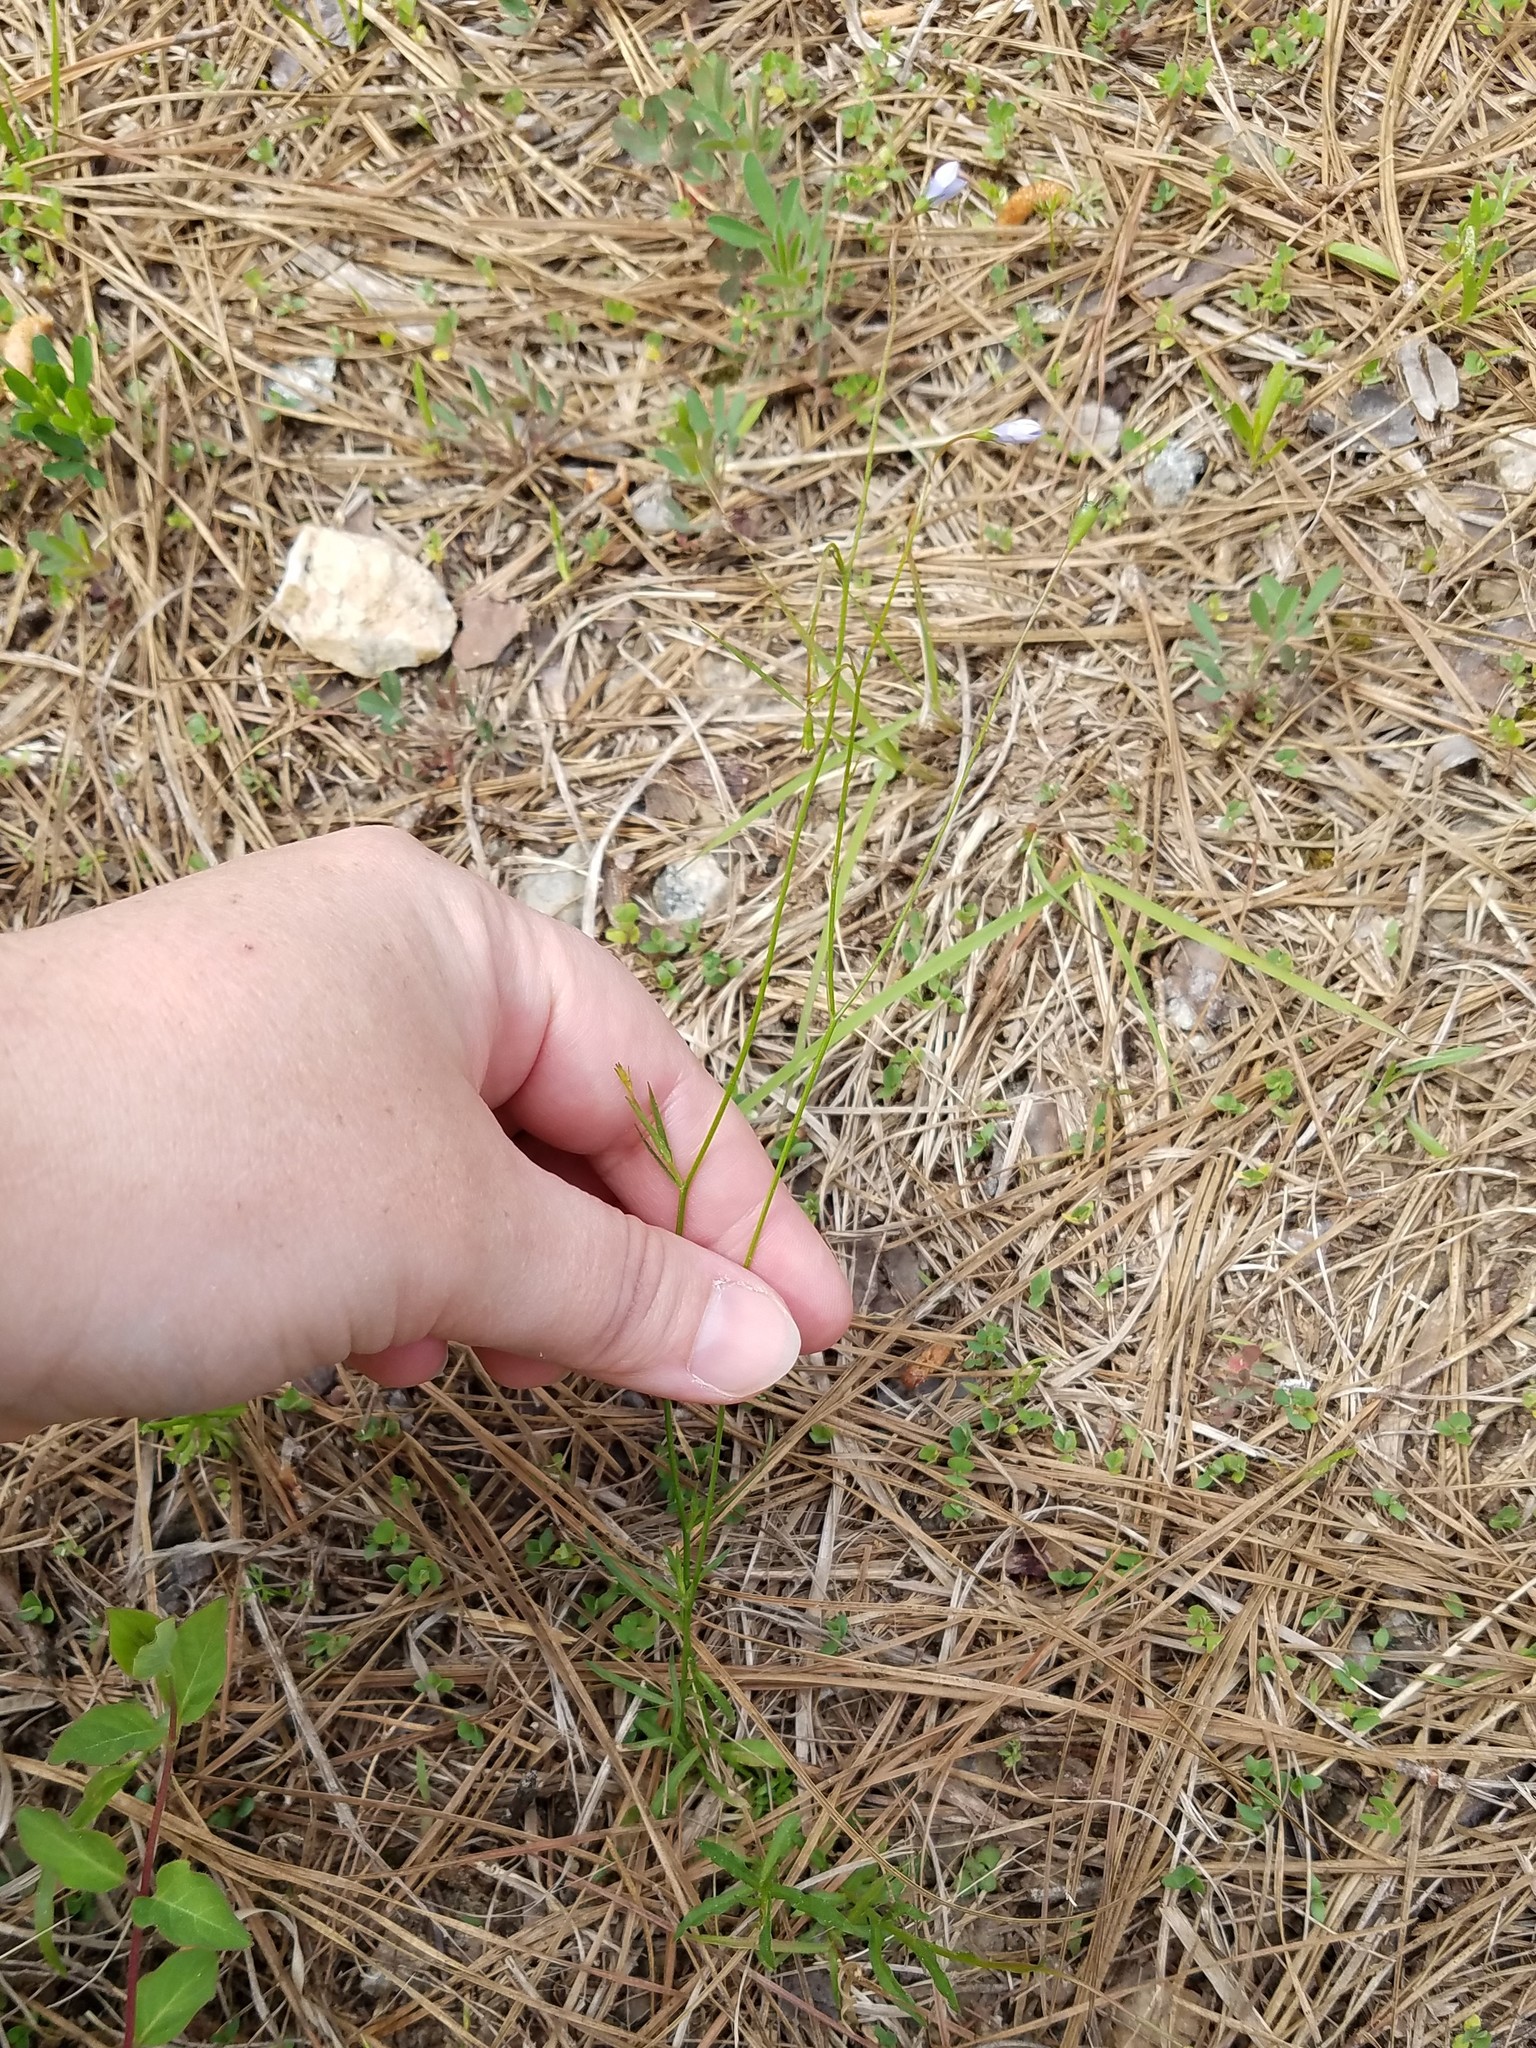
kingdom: Plantae
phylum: Tracheophyta
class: Magnoliopsida
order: Asterales
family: Campanulaceae
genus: Wahlenbergia
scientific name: Wahlenbergia marginata
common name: Southern rockbell
